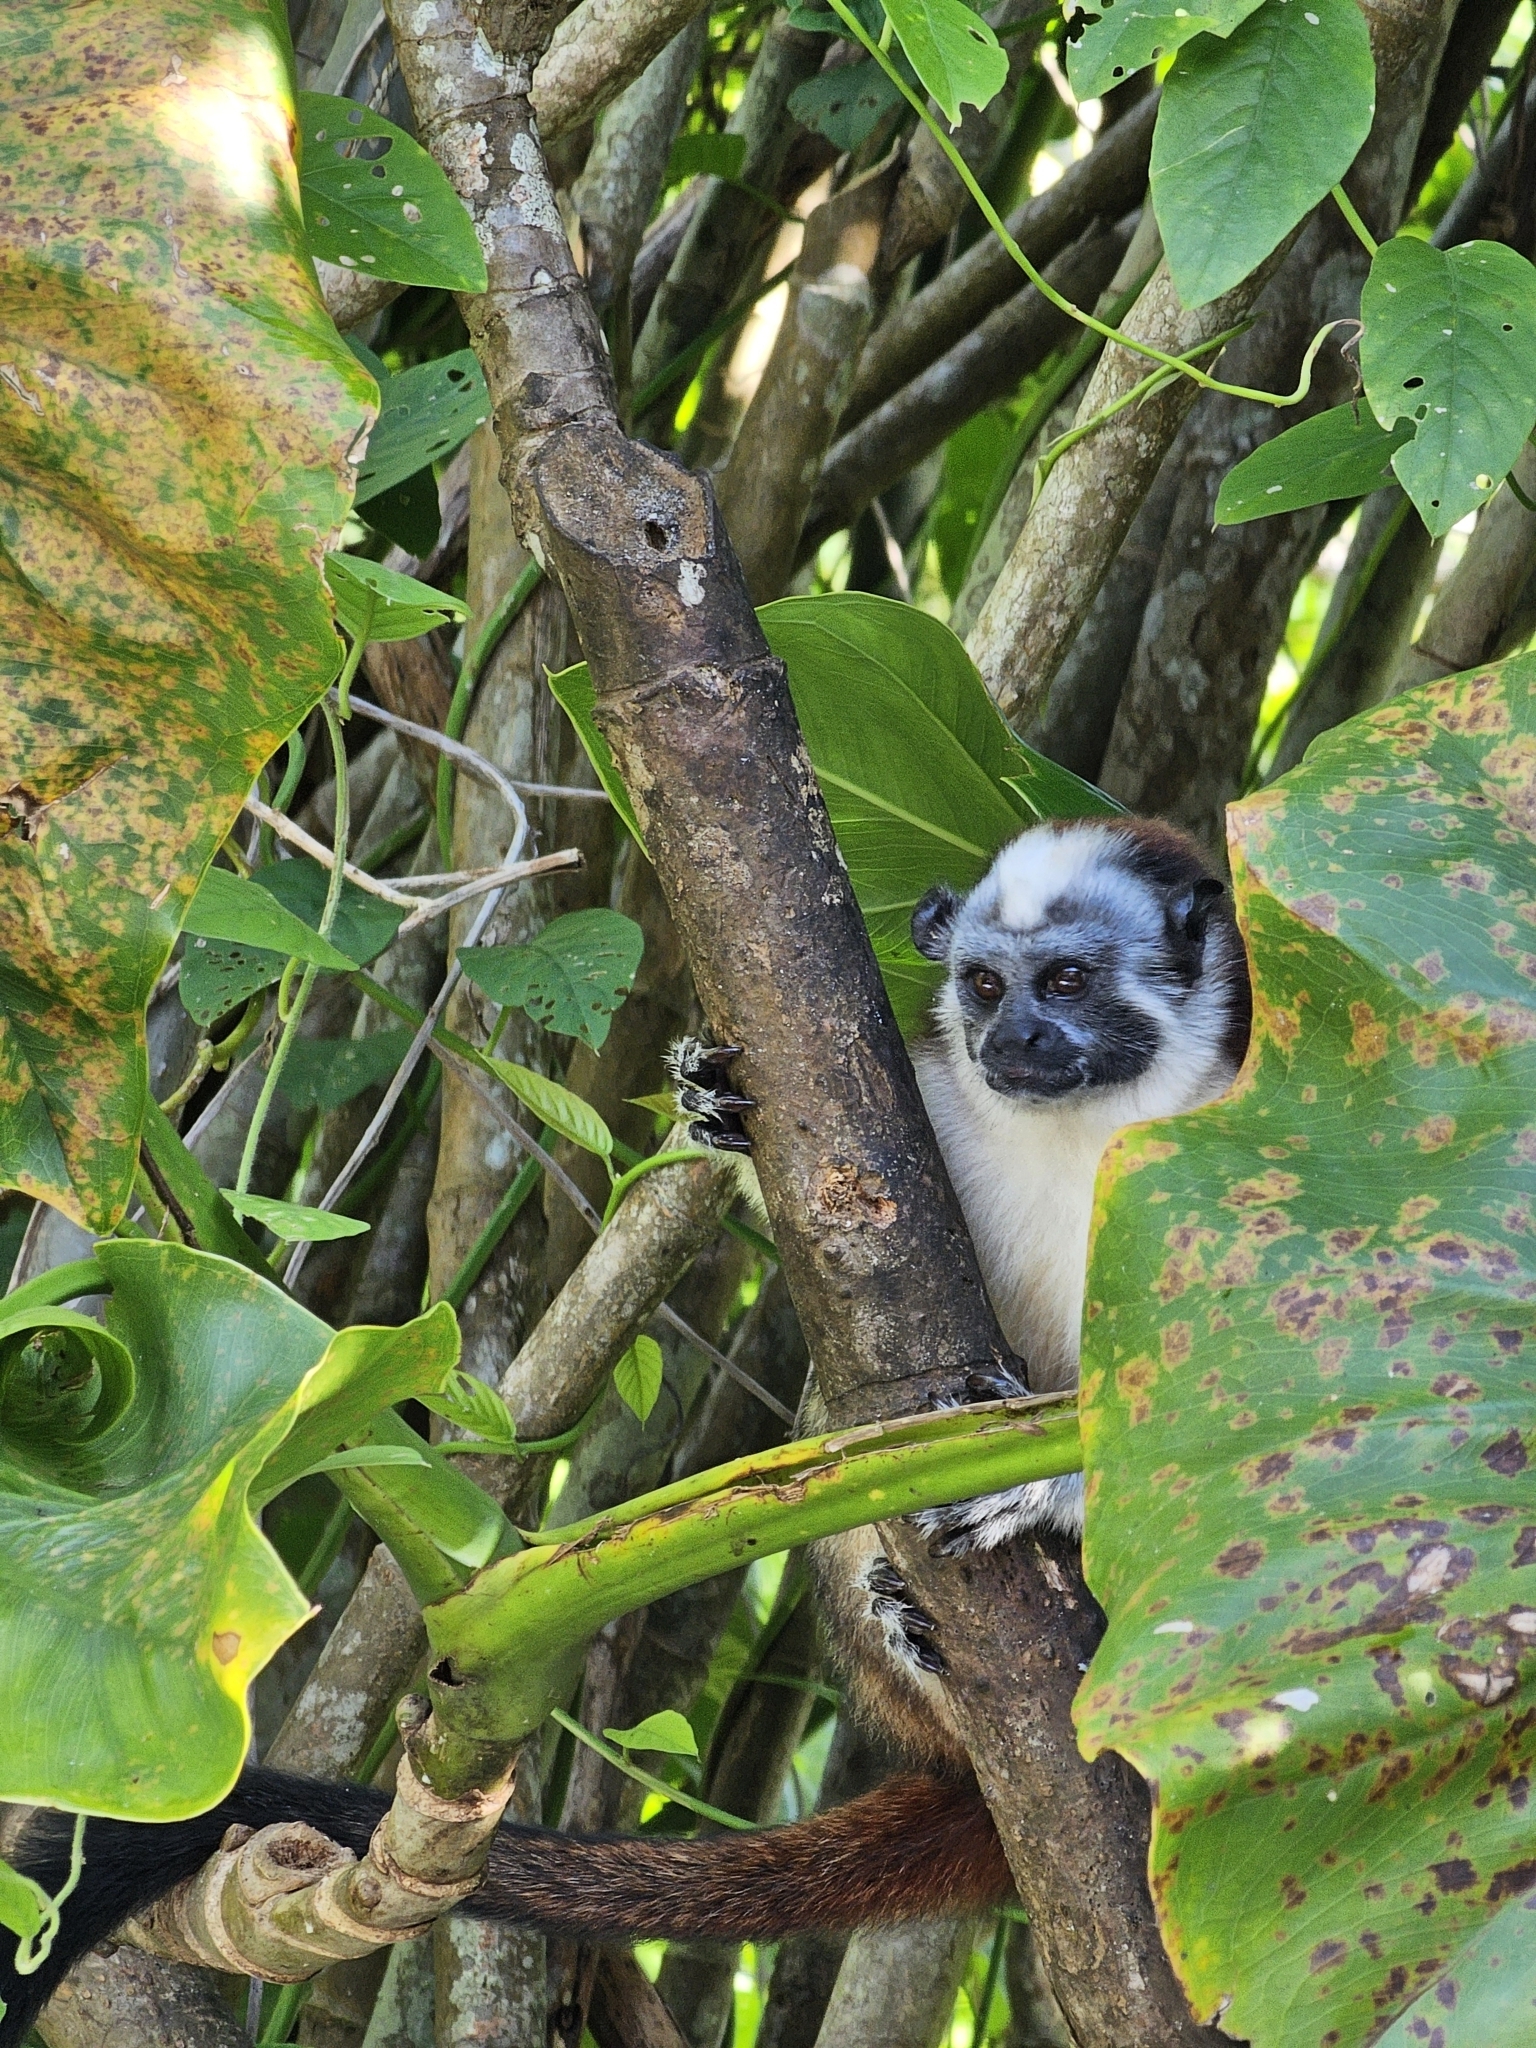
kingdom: Animalia
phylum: Chordata
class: Mammalia
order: Primates
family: Callitrichidae
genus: Saguinus
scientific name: Saguinus geoffroyi
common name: Geoffroy s tamarin
